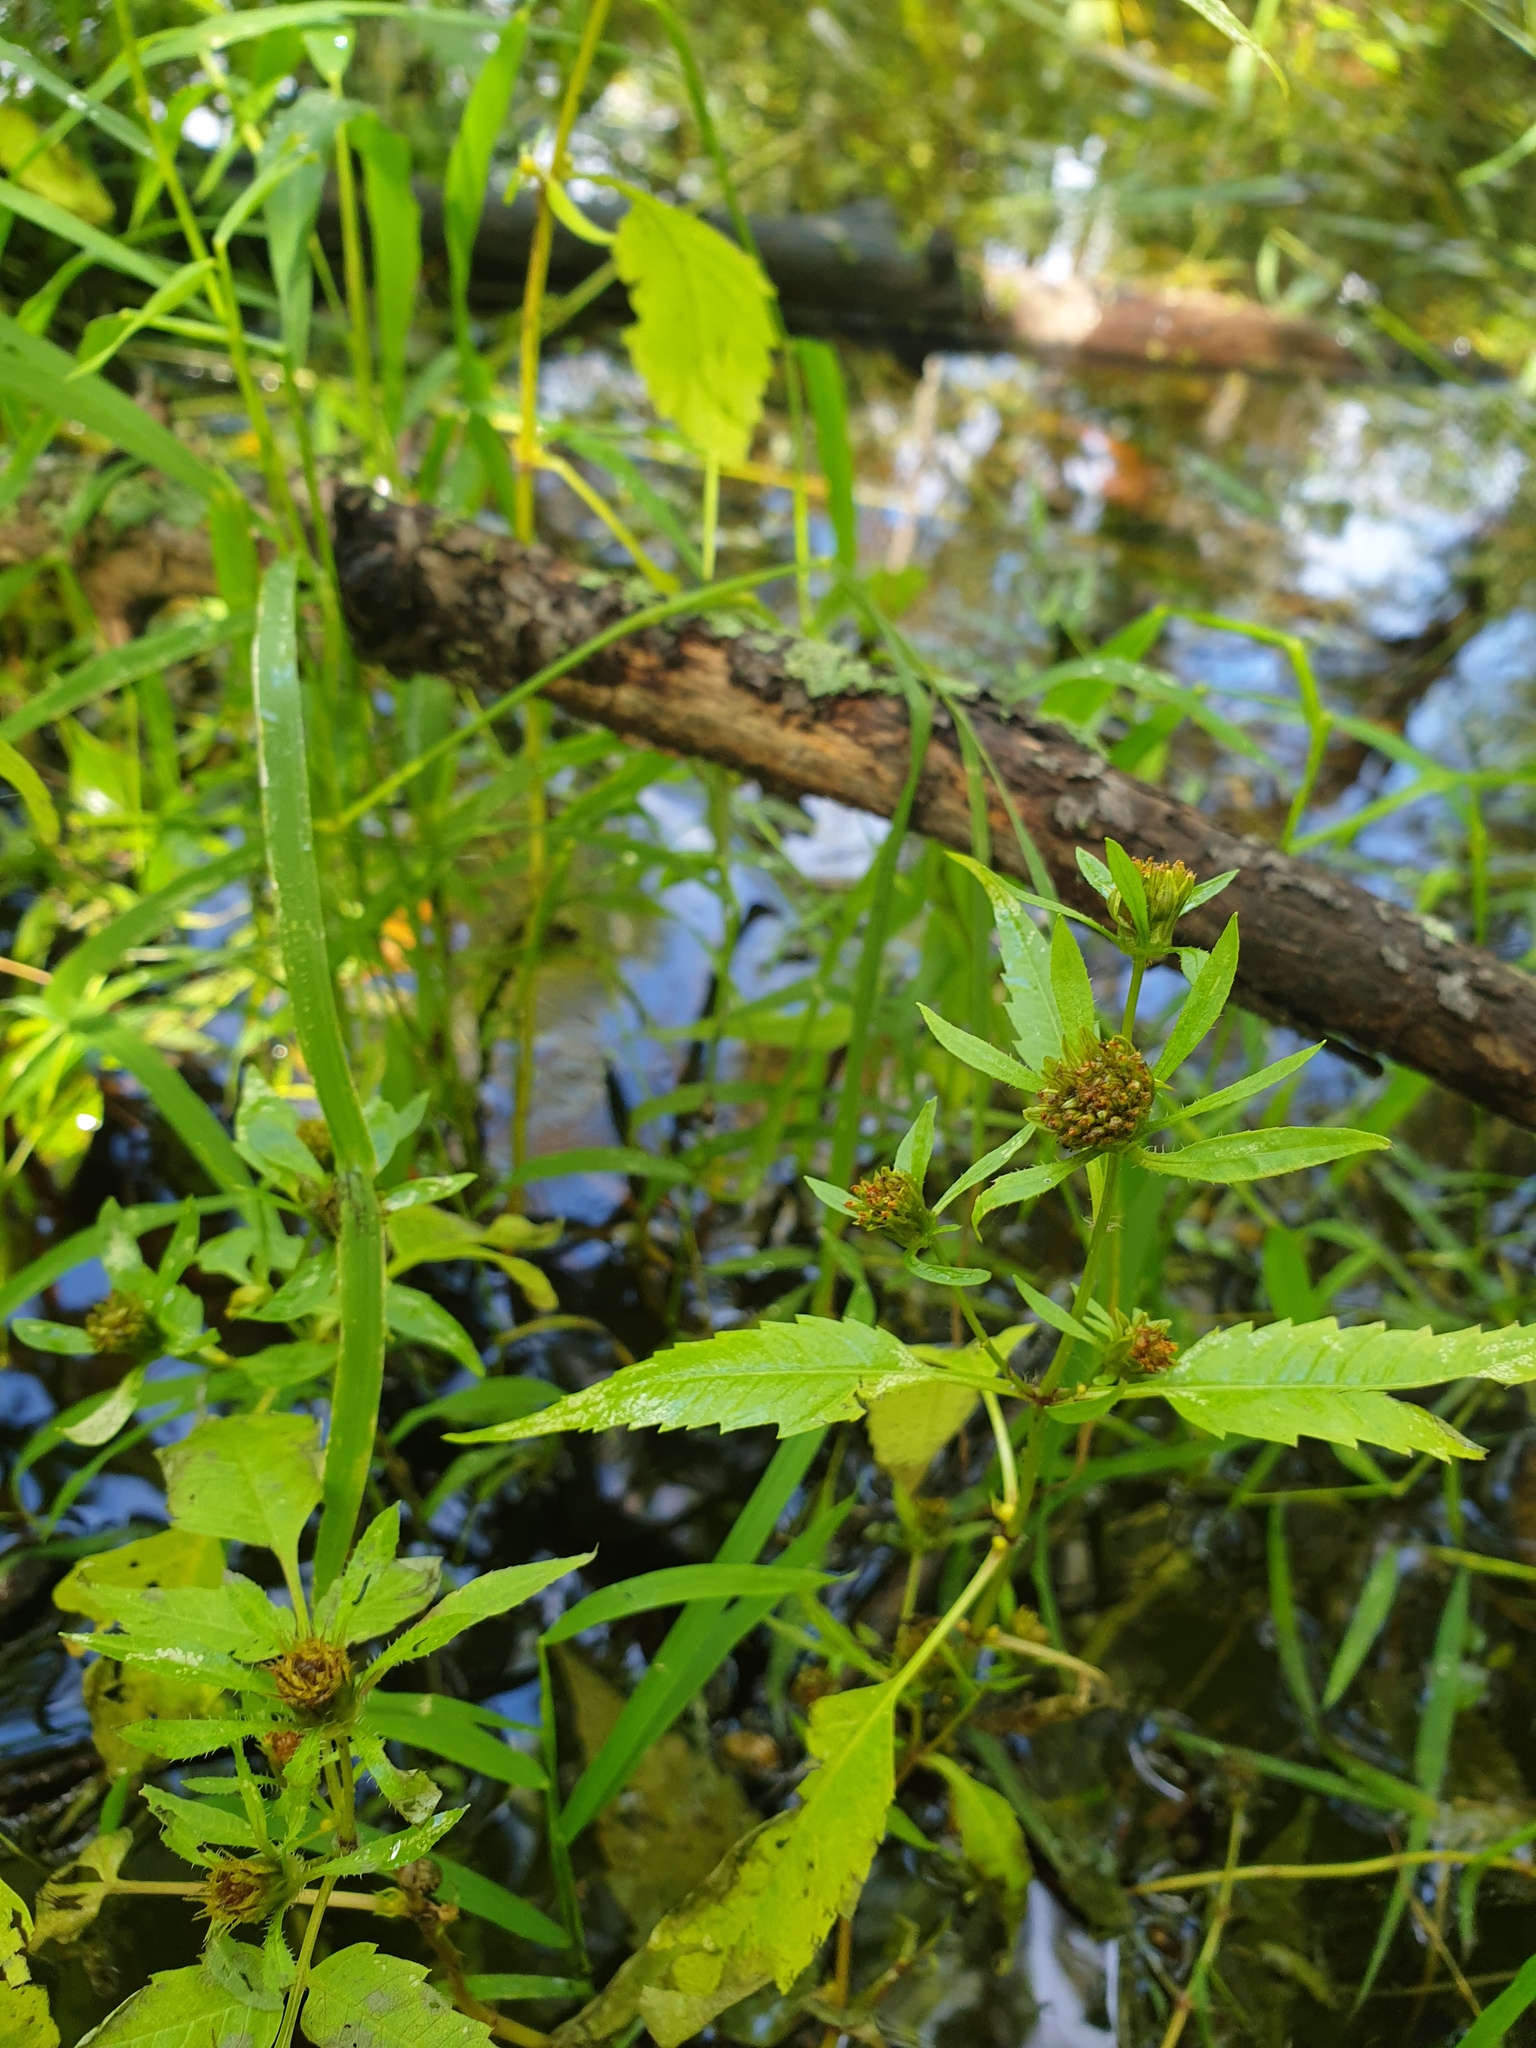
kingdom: Plantae
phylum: Tracheophyta
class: Magnoliopsida
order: Asterales
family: Asteraceae
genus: Bidens
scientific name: Bidens connata
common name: London bur-marigold
